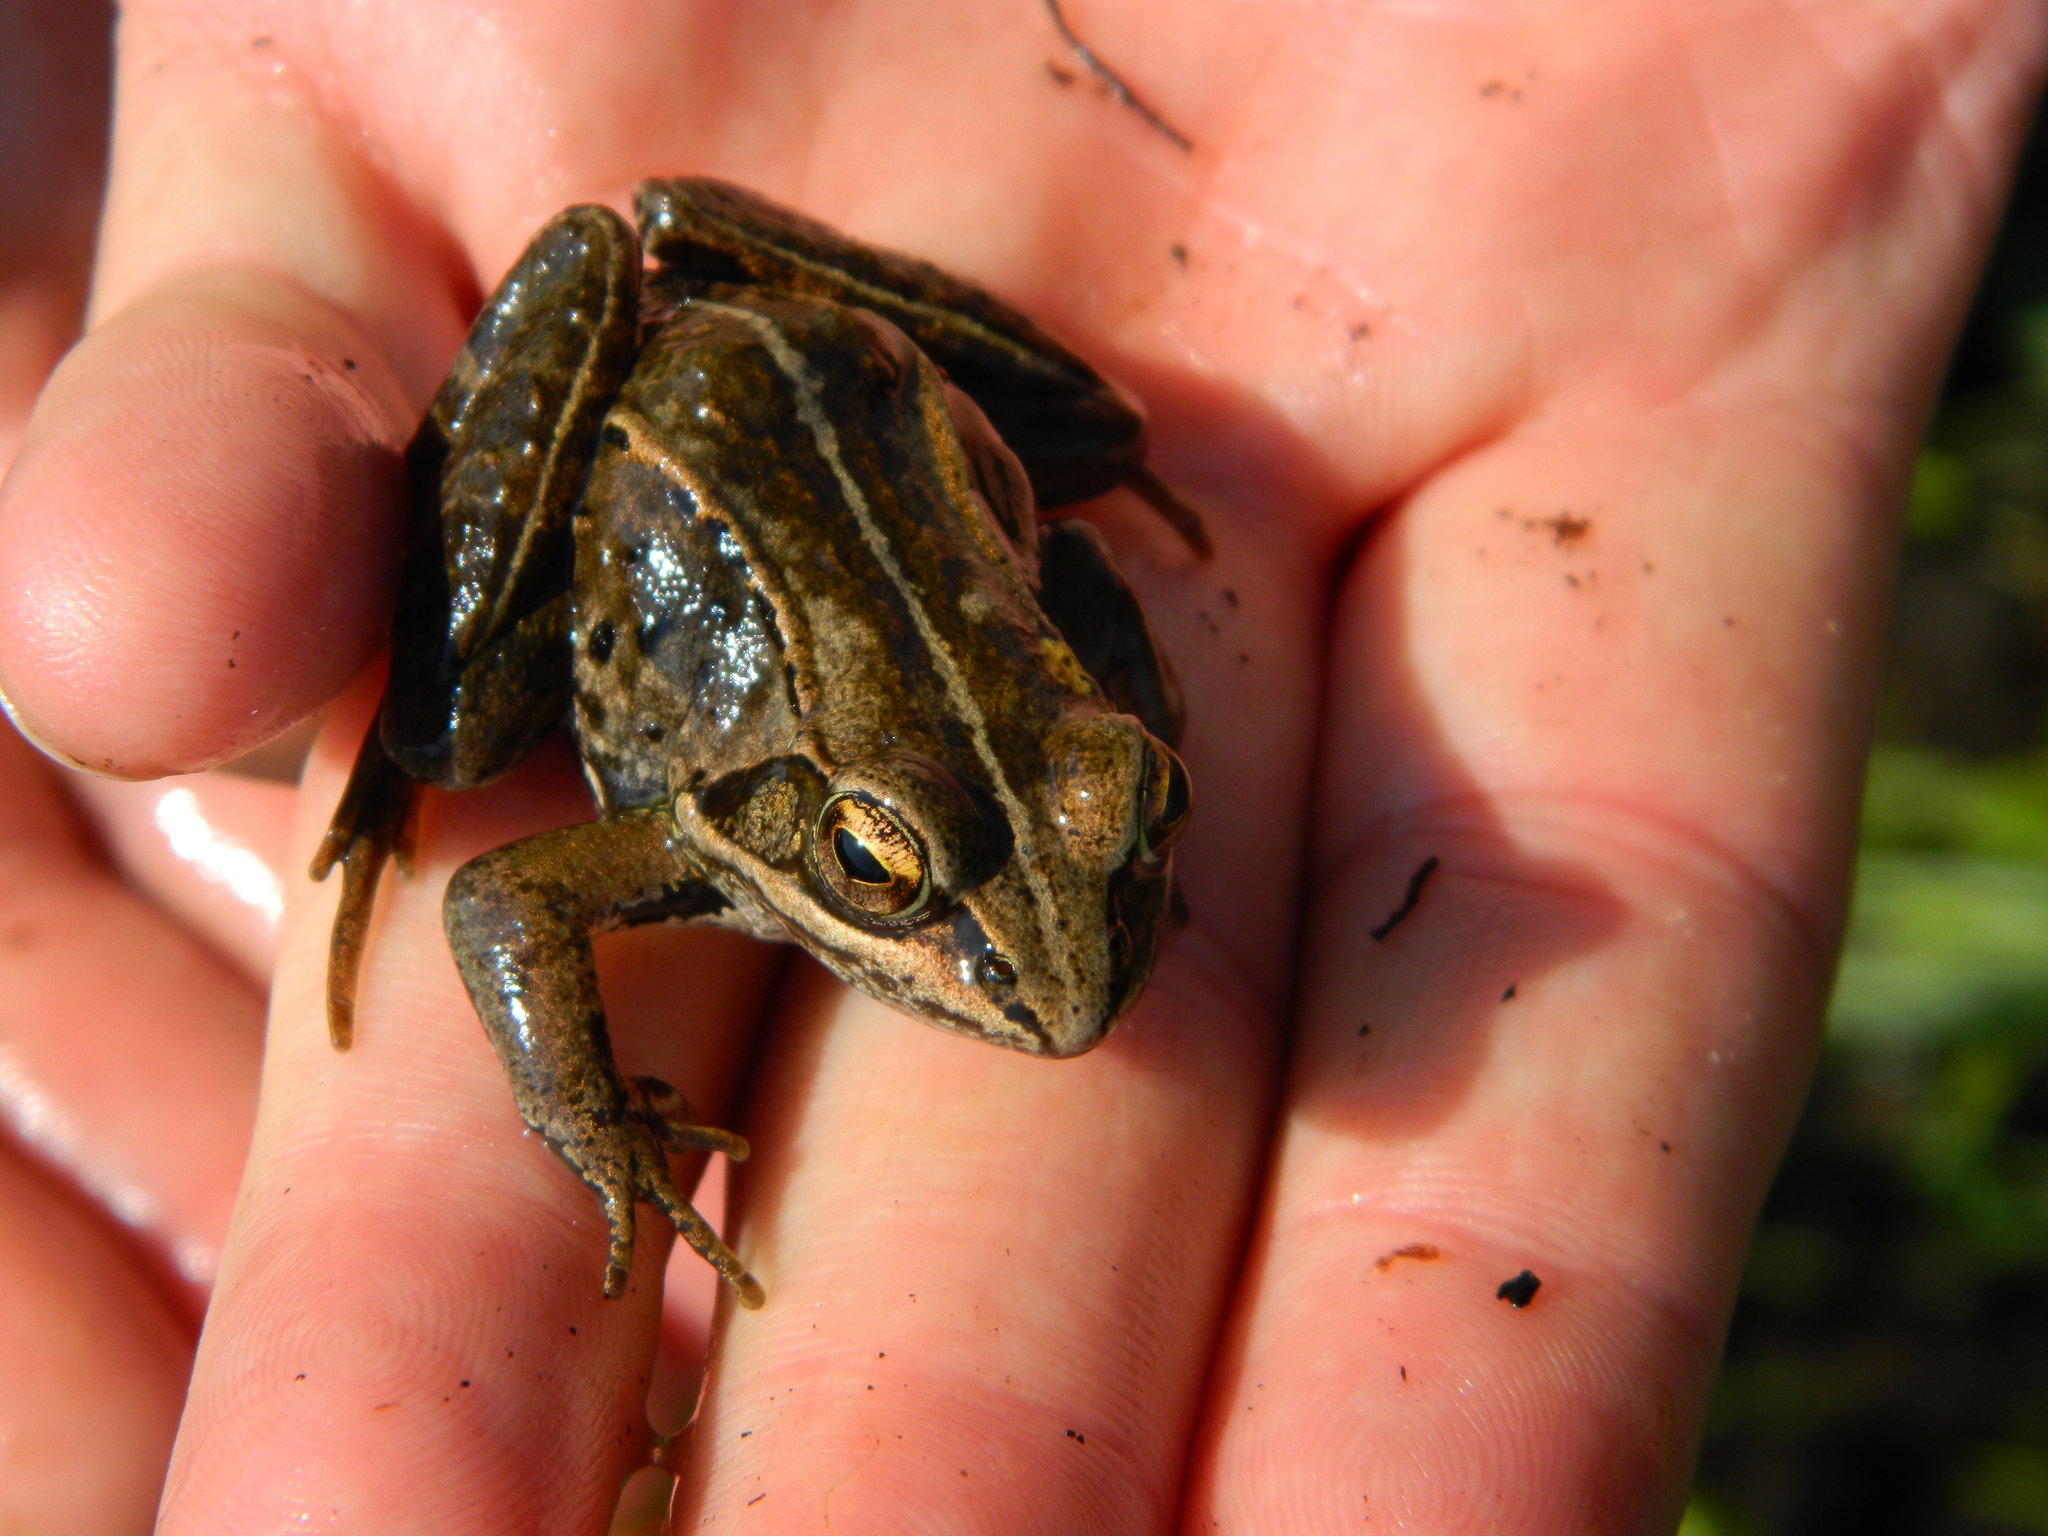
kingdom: Animalia
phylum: Chordata
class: Amphibia
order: Anura
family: Ranidae
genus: Lithobates
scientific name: Lithobates sylvaticus
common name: Wood frog
